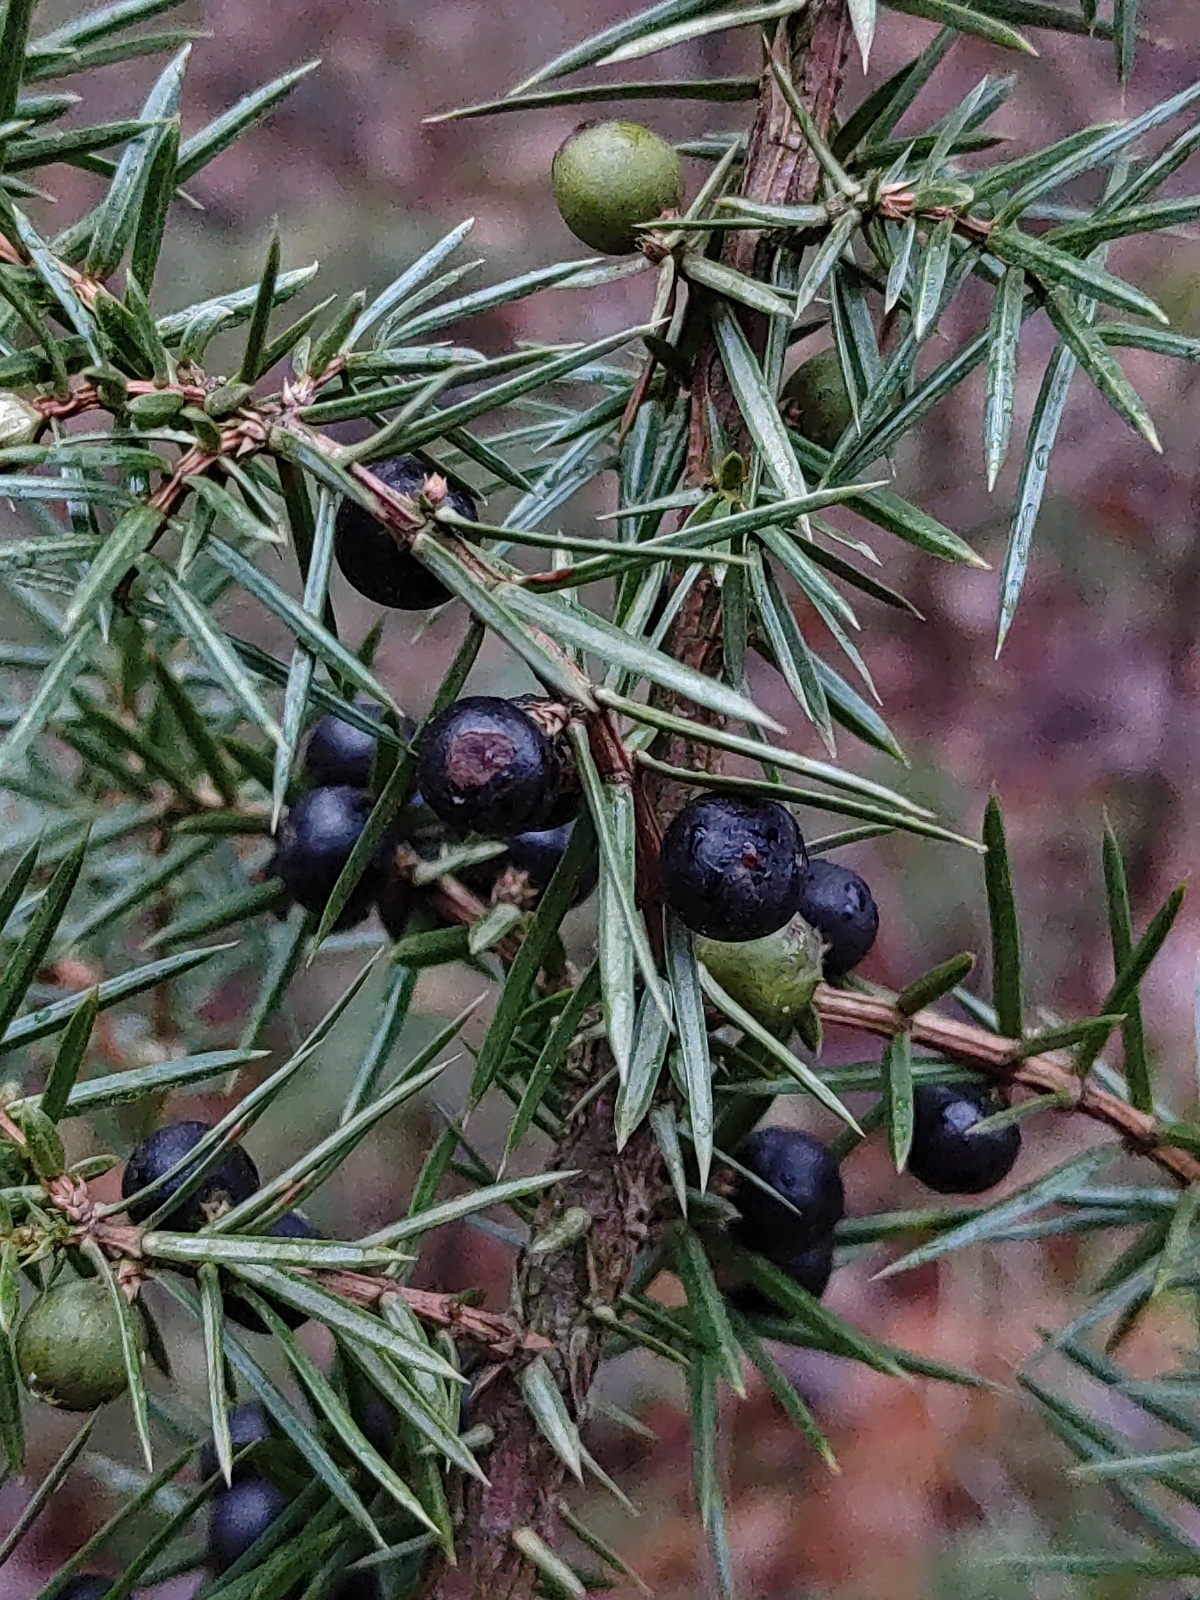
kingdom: Plantae
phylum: Tracheophyta
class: Pinopsida
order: Pinales
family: Cupressaceae
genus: Juniperus
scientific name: Juniperus communis
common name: Common juniper
